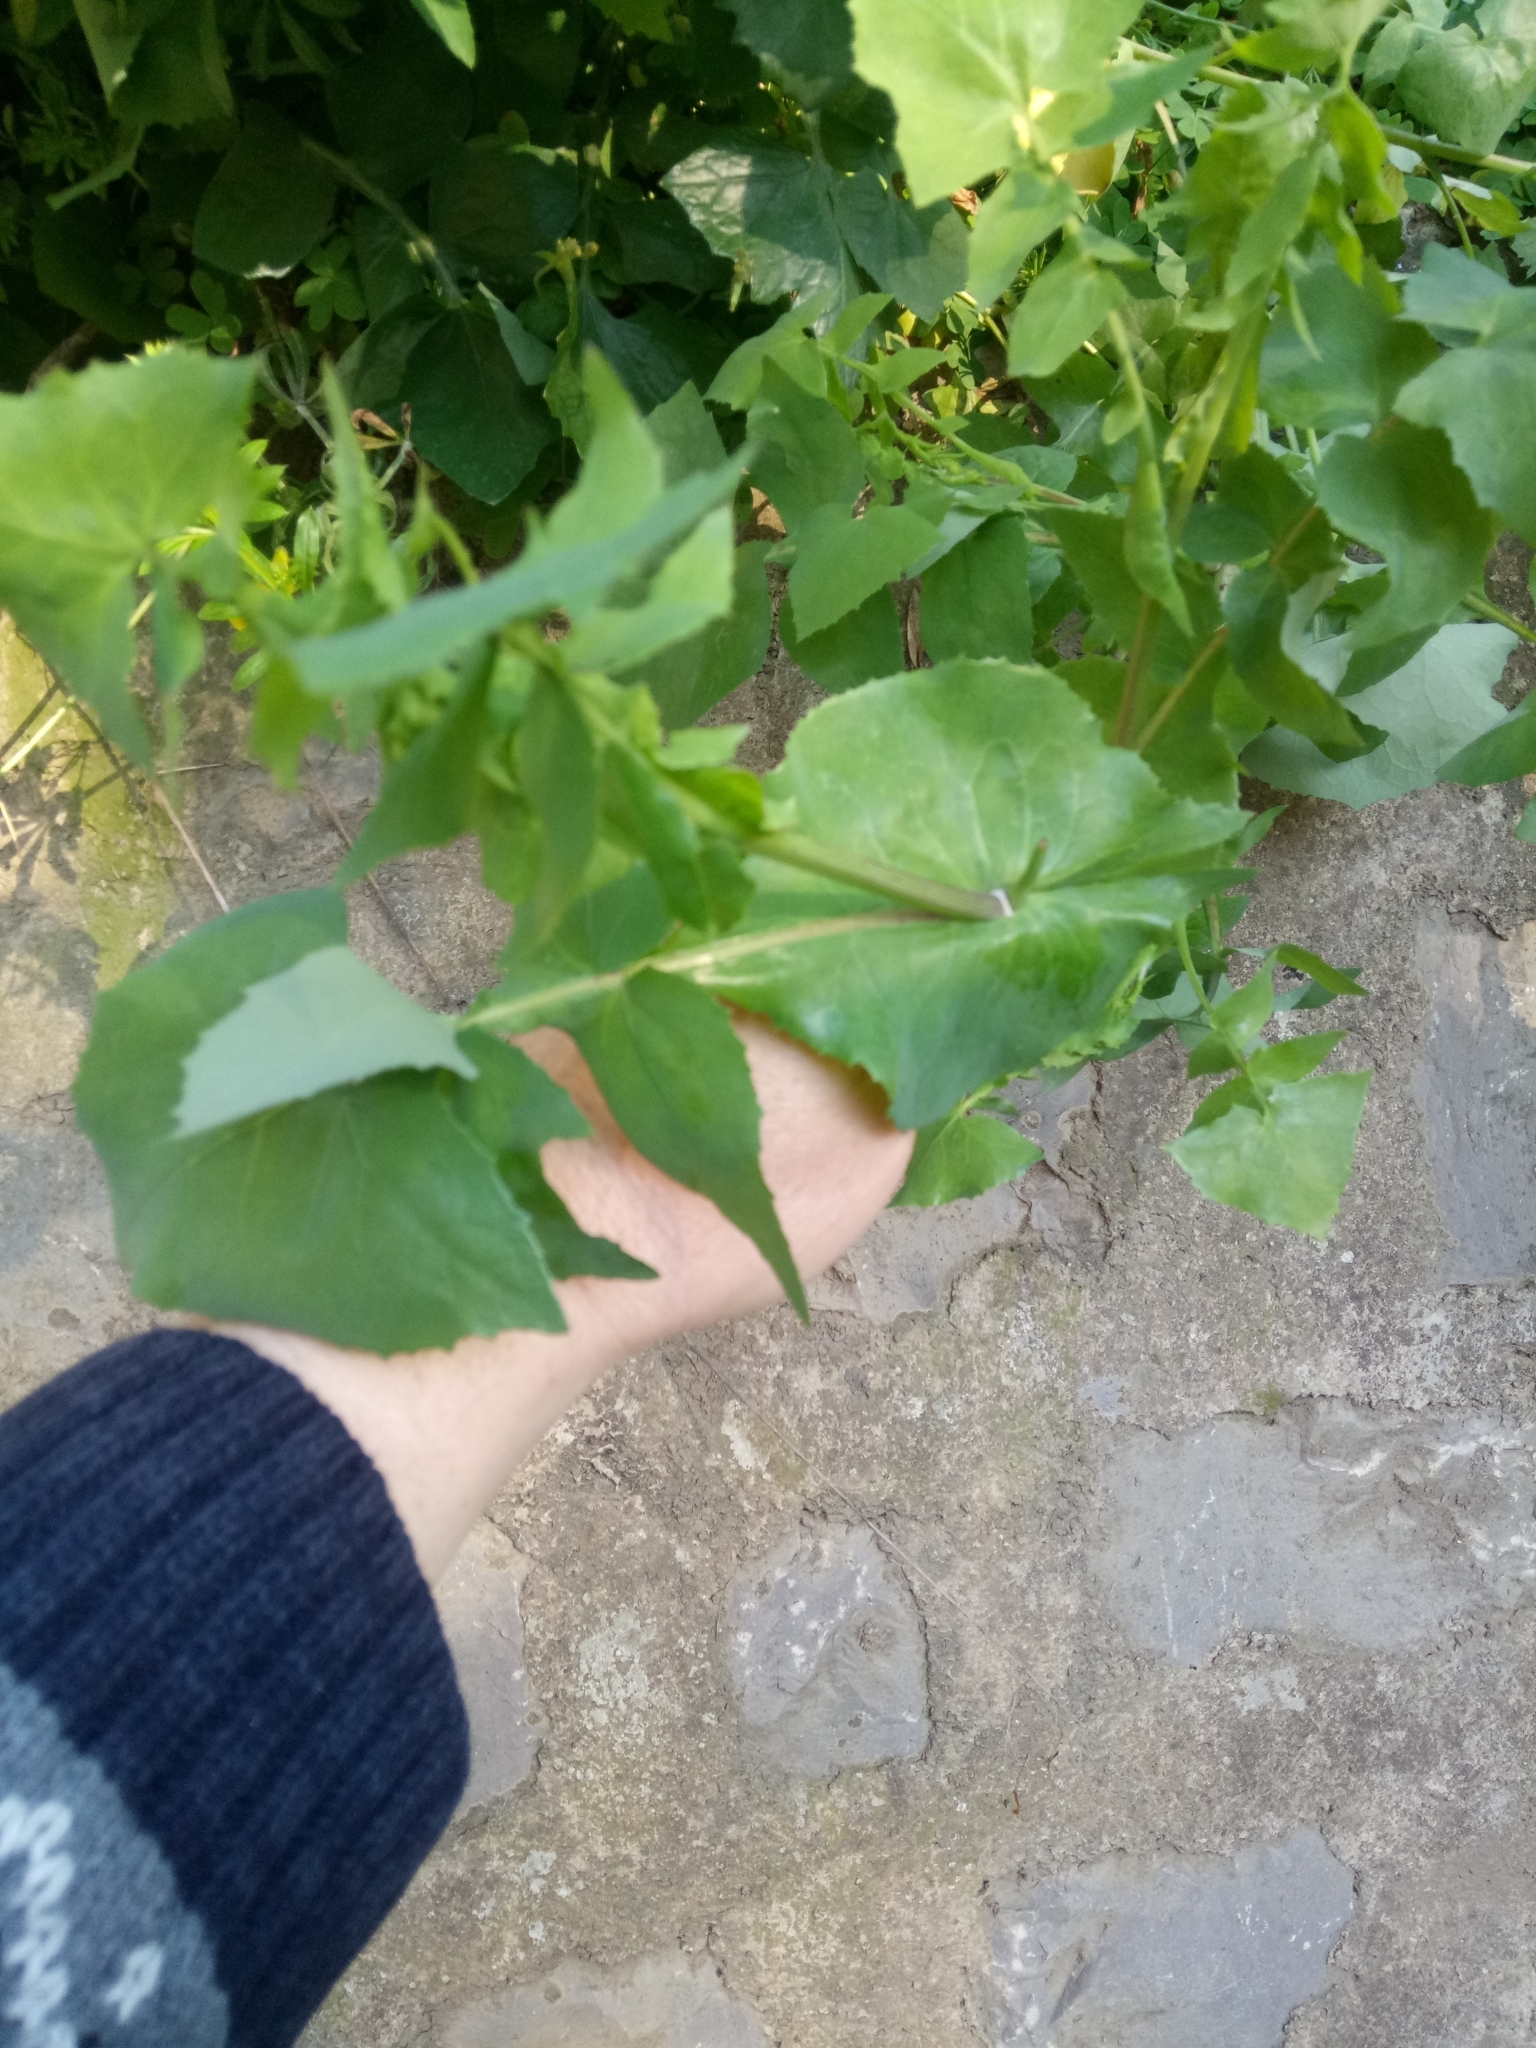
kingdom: Plantae
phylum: Tracheophyta
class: Magnoliopsida
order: Asterales
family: Asteraceae
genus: Sonchus
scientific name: Sonchus tenerrimus
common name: Clammy sowthistle
